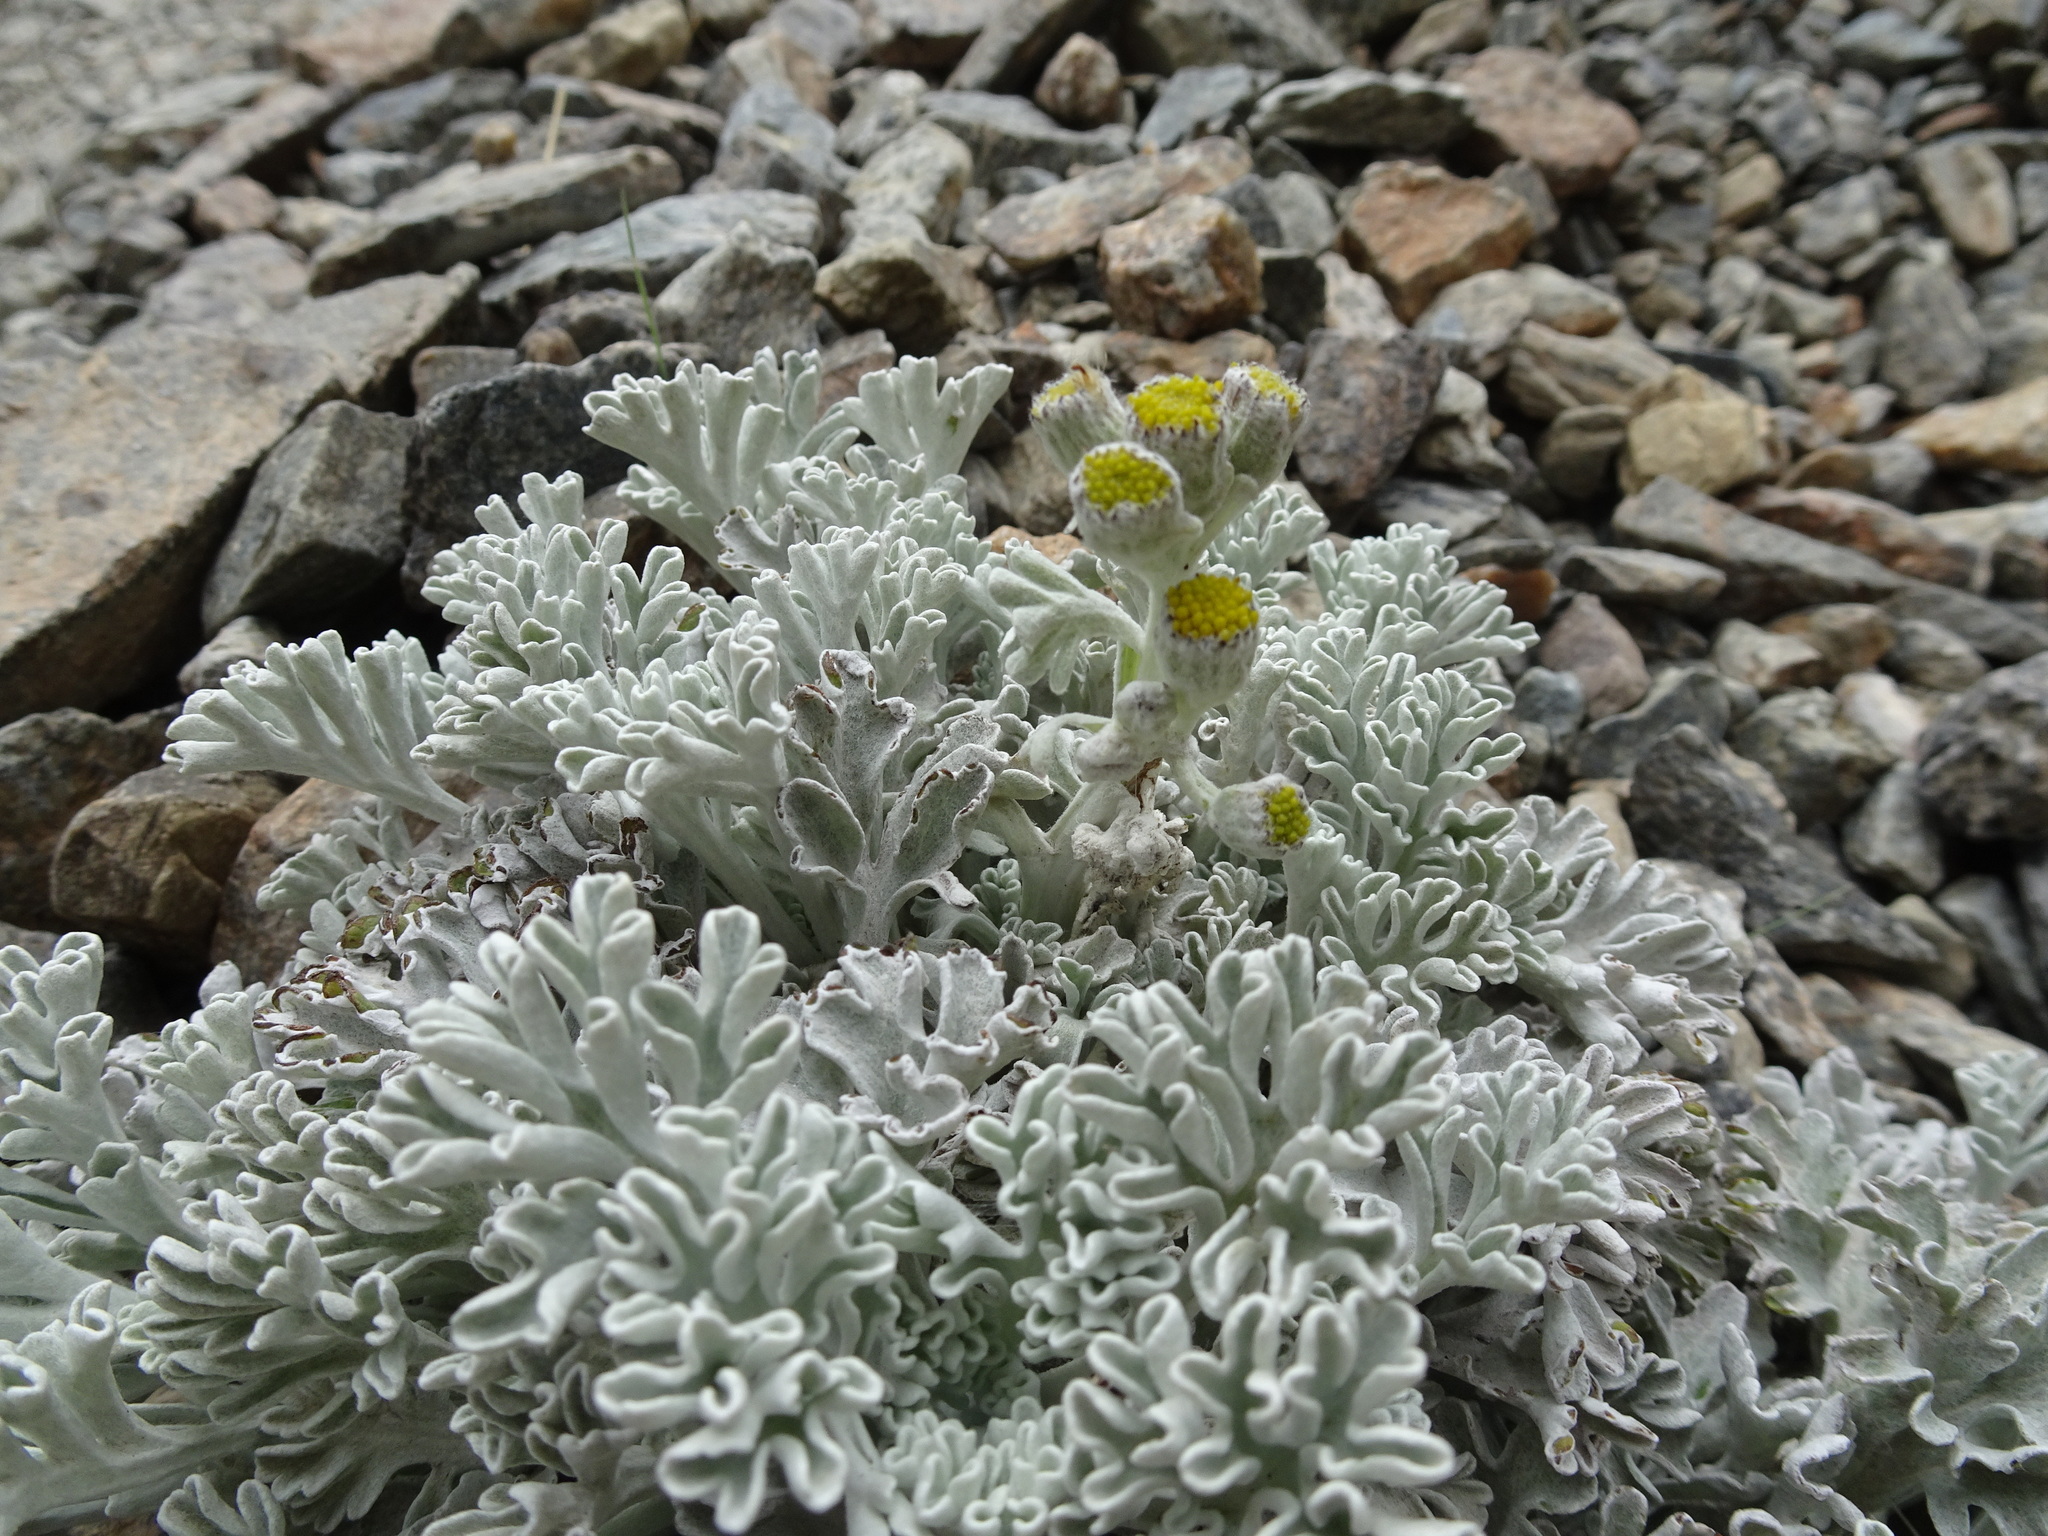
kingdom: Plantae
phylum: Tracheophyta
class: Magnoliopsida
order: Asterales
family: Asteraceae
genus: Jacobaea
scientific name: Jacobaea leucophylla
